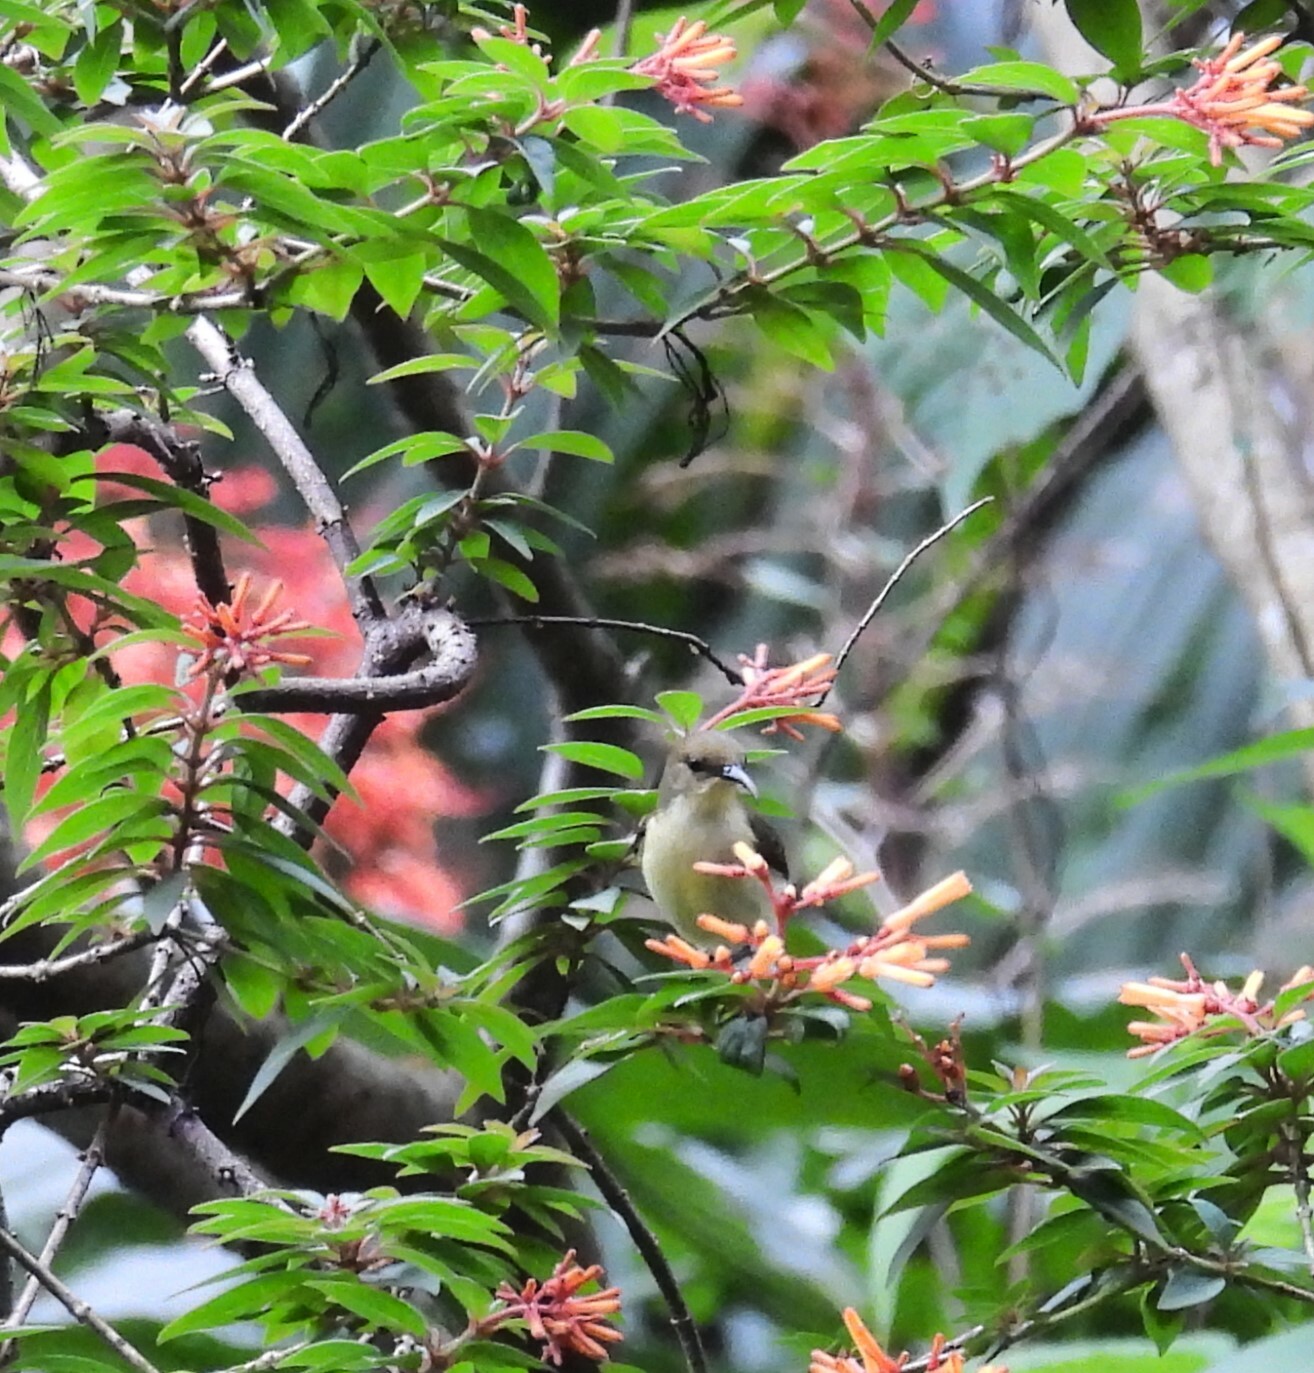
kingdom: Animalia
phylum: Chordata
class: Aves
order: Passeriformes
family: Nectariniidae
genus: Leptocoma
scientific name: Leptocoma minima
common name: Crimson-backed sunbird
